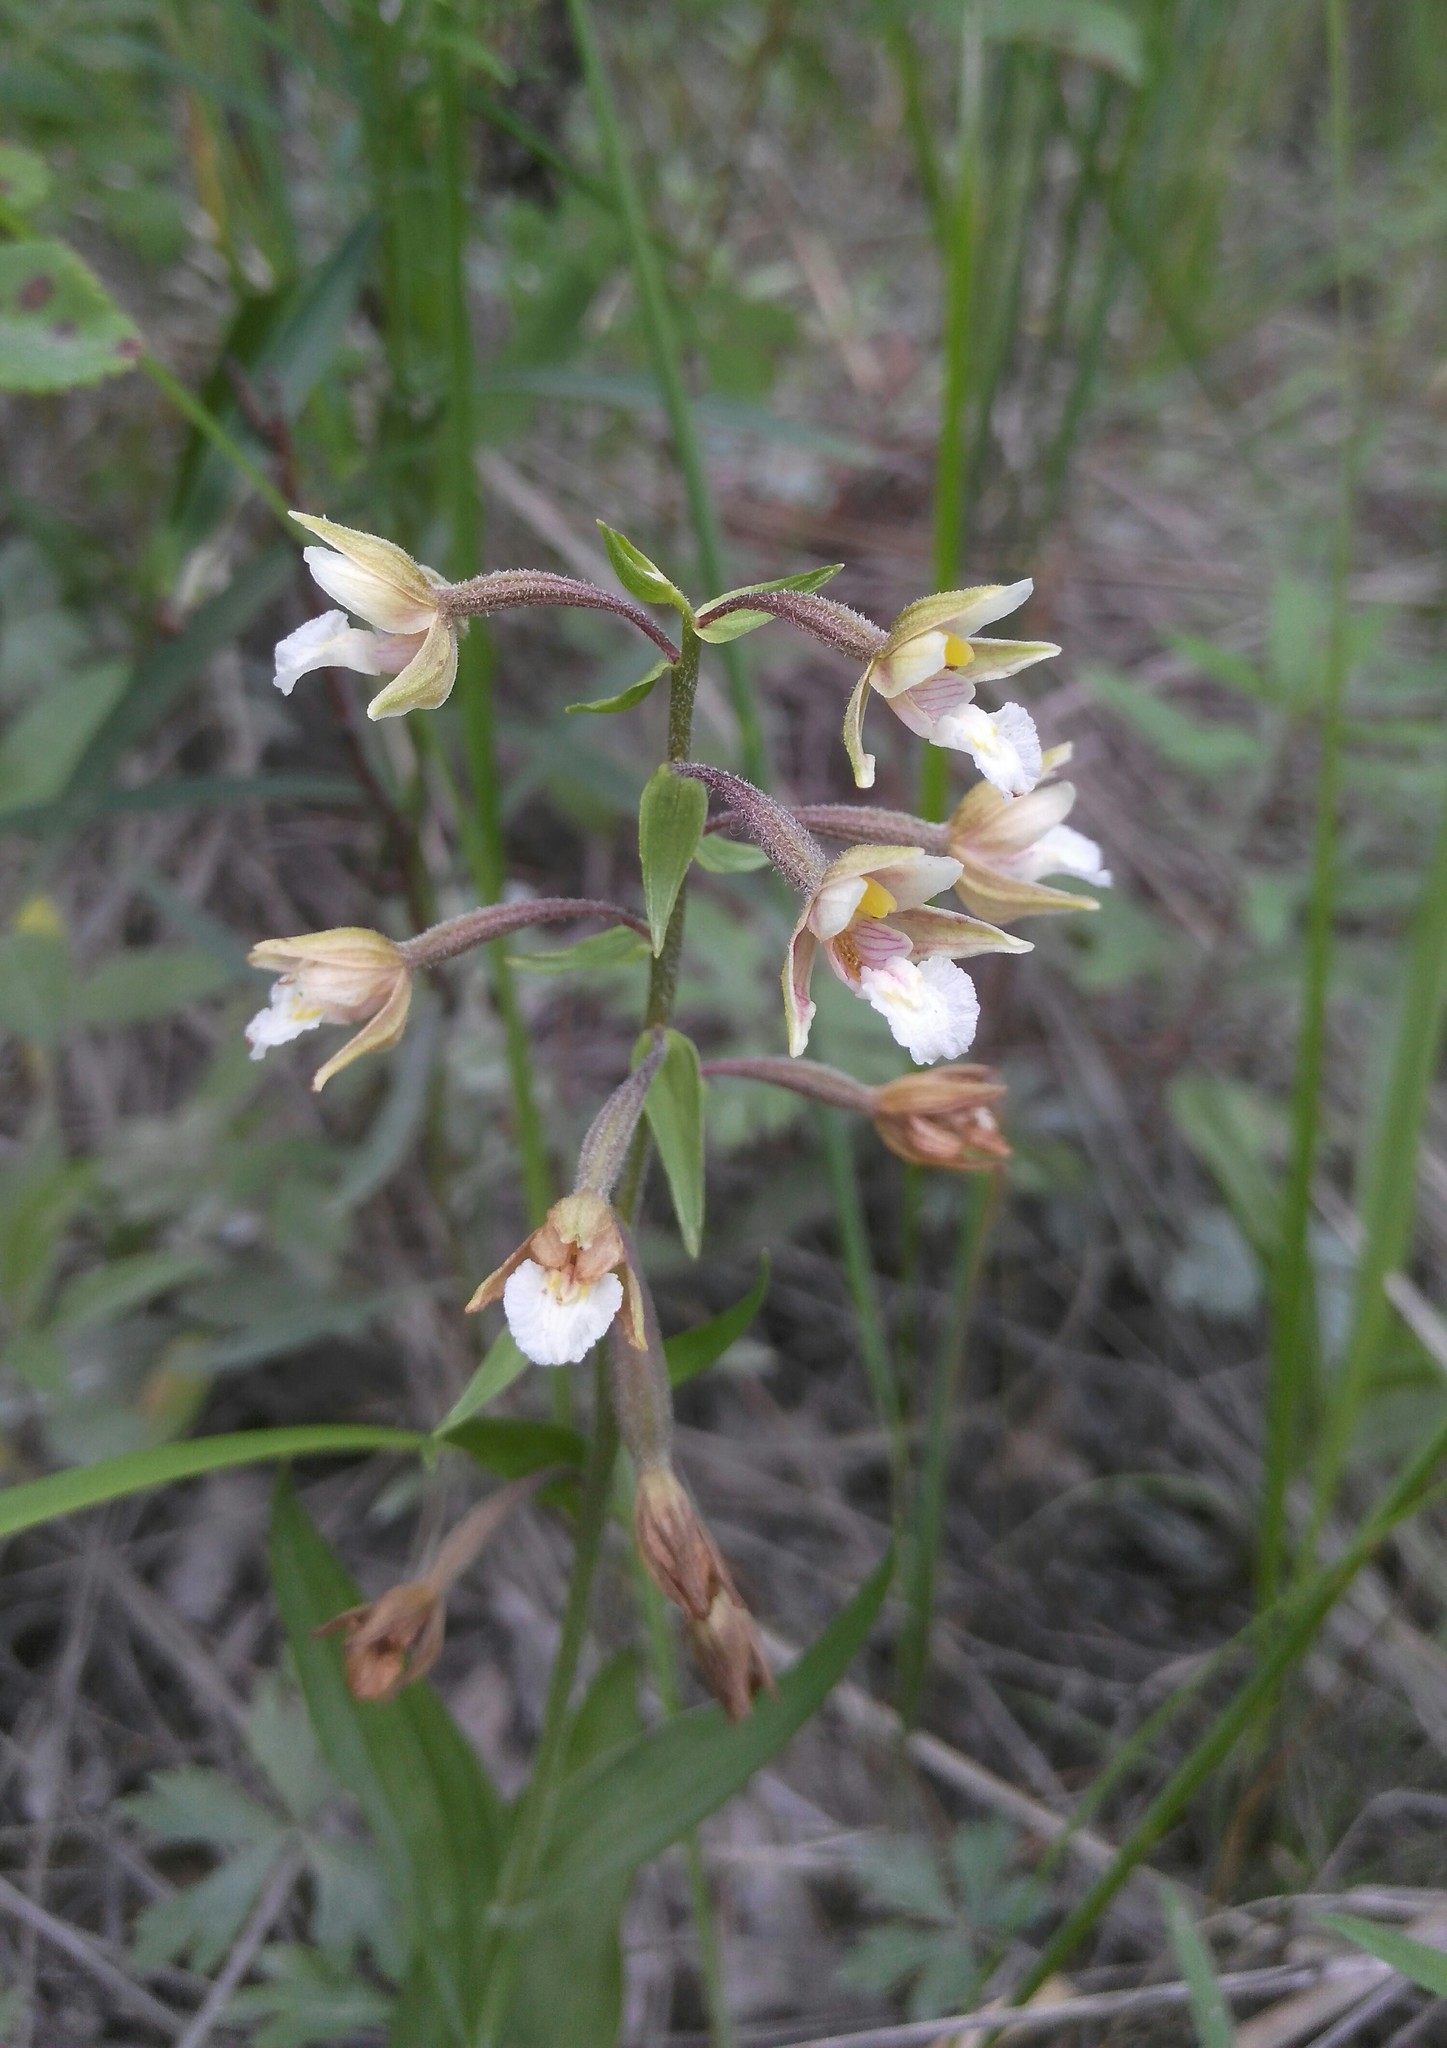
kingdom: Plantae
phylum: Tracheophyta
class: Liliopsida
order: Asparagales
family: Orchidaceae
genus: Epipactis
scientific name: Epipactis palustris
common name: Marsh helleborine
